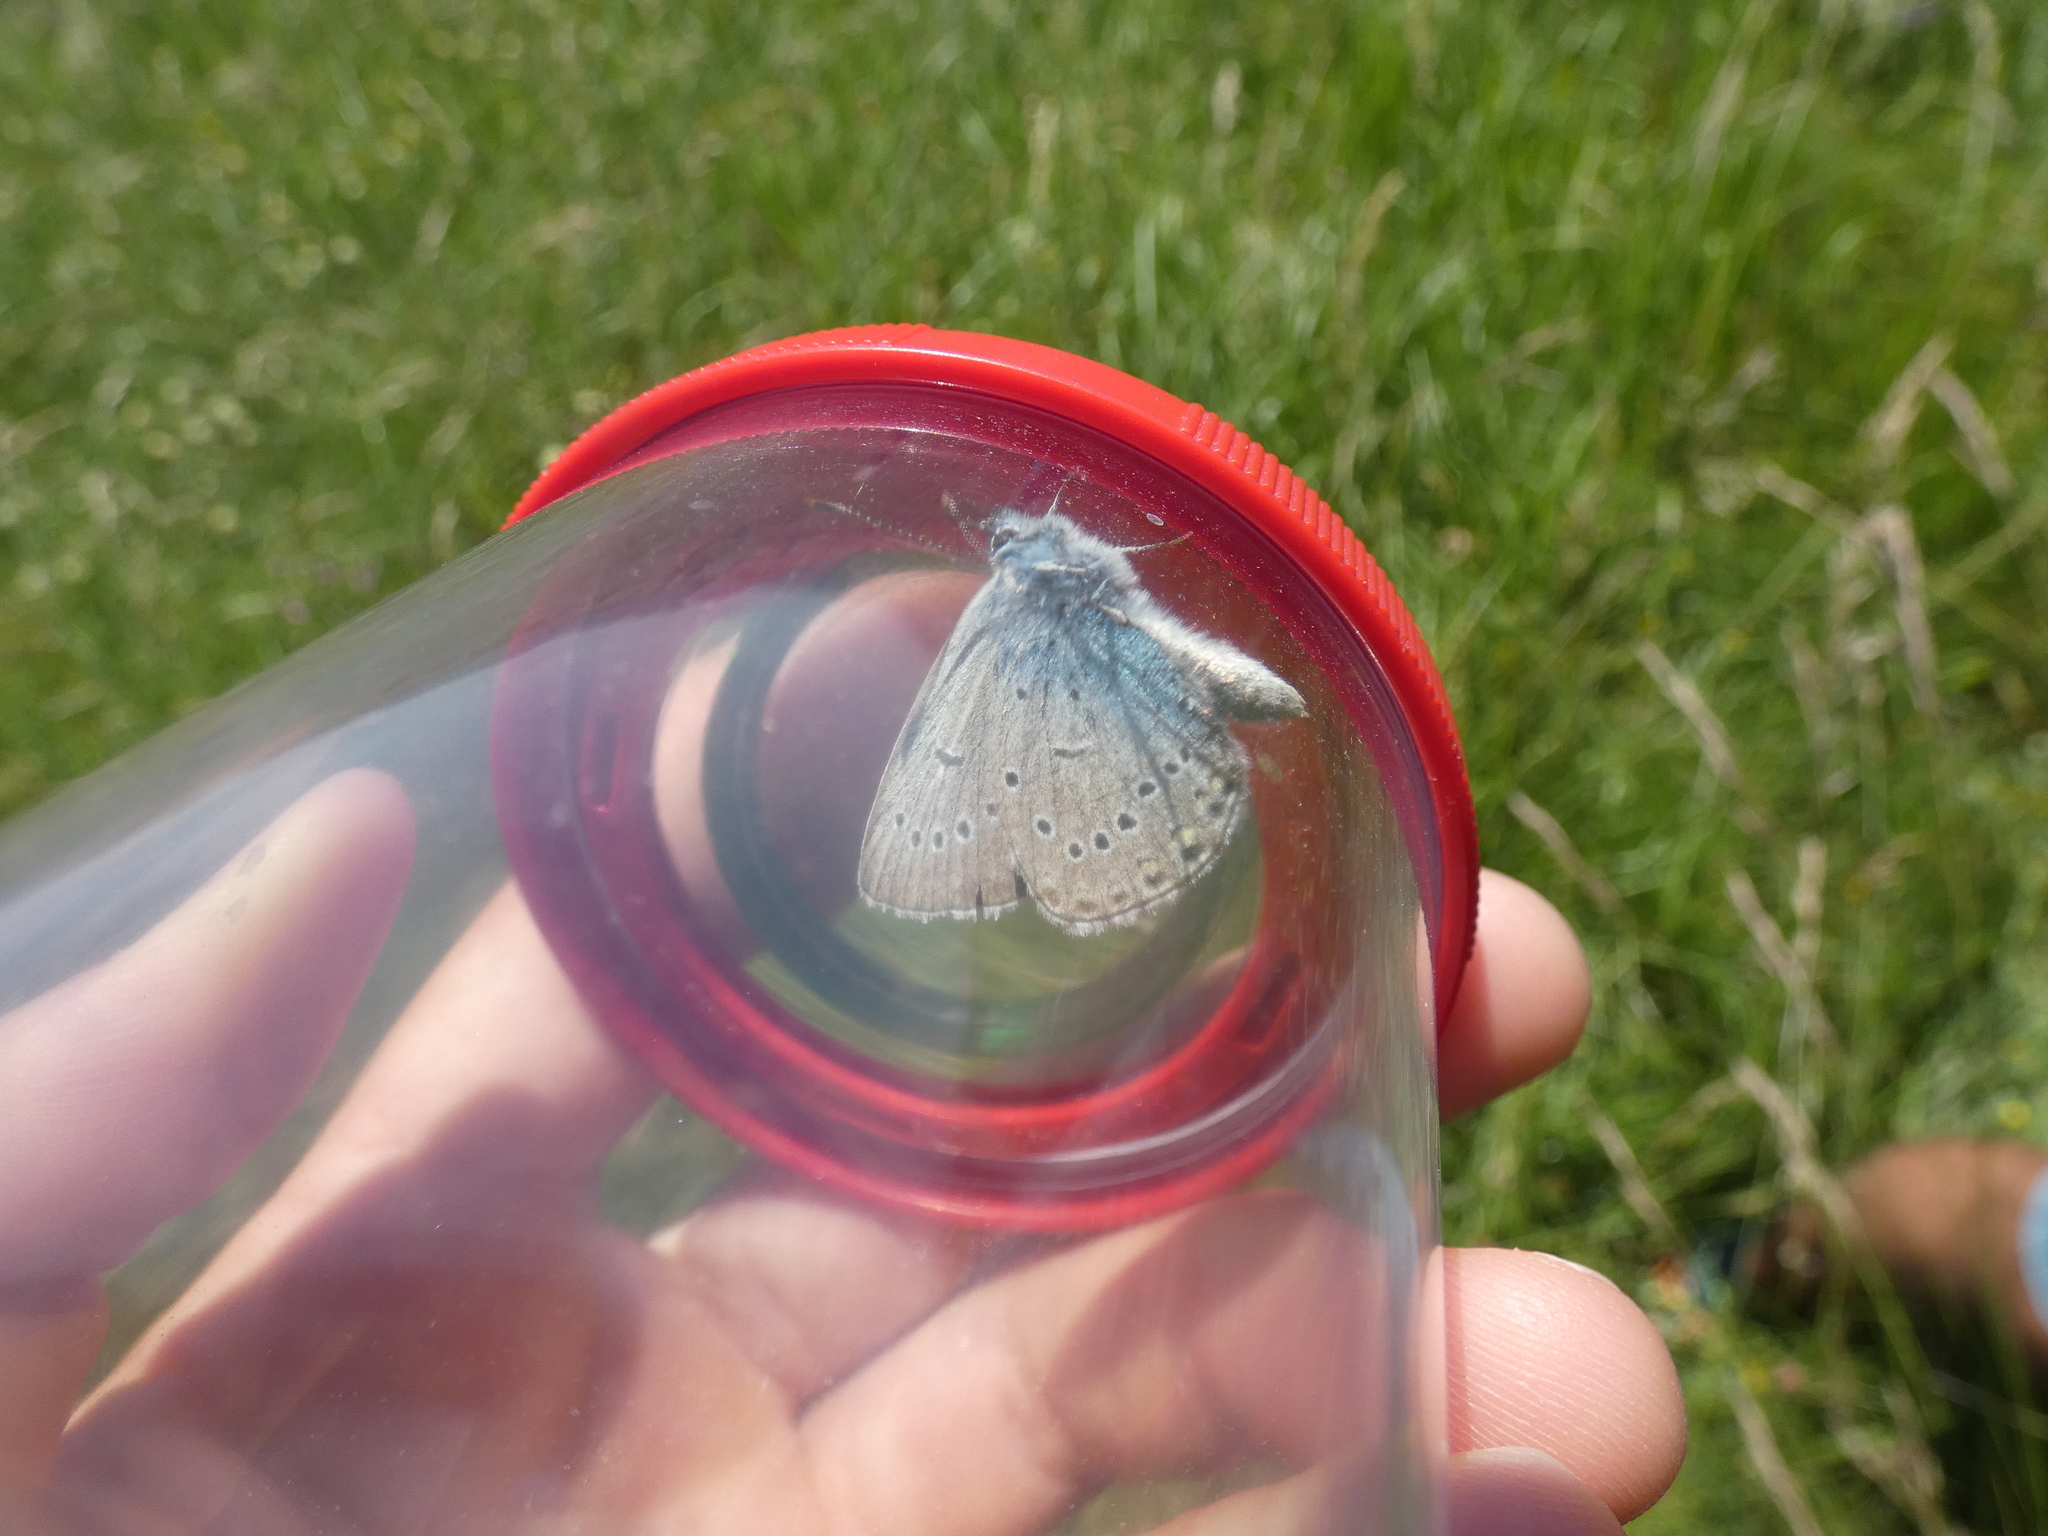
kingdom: Animalia
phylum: Arthropoda
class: Insecta
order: Lepidoptera
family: Lycaenidae
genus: Plebejus
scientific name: Plebejus amanda
